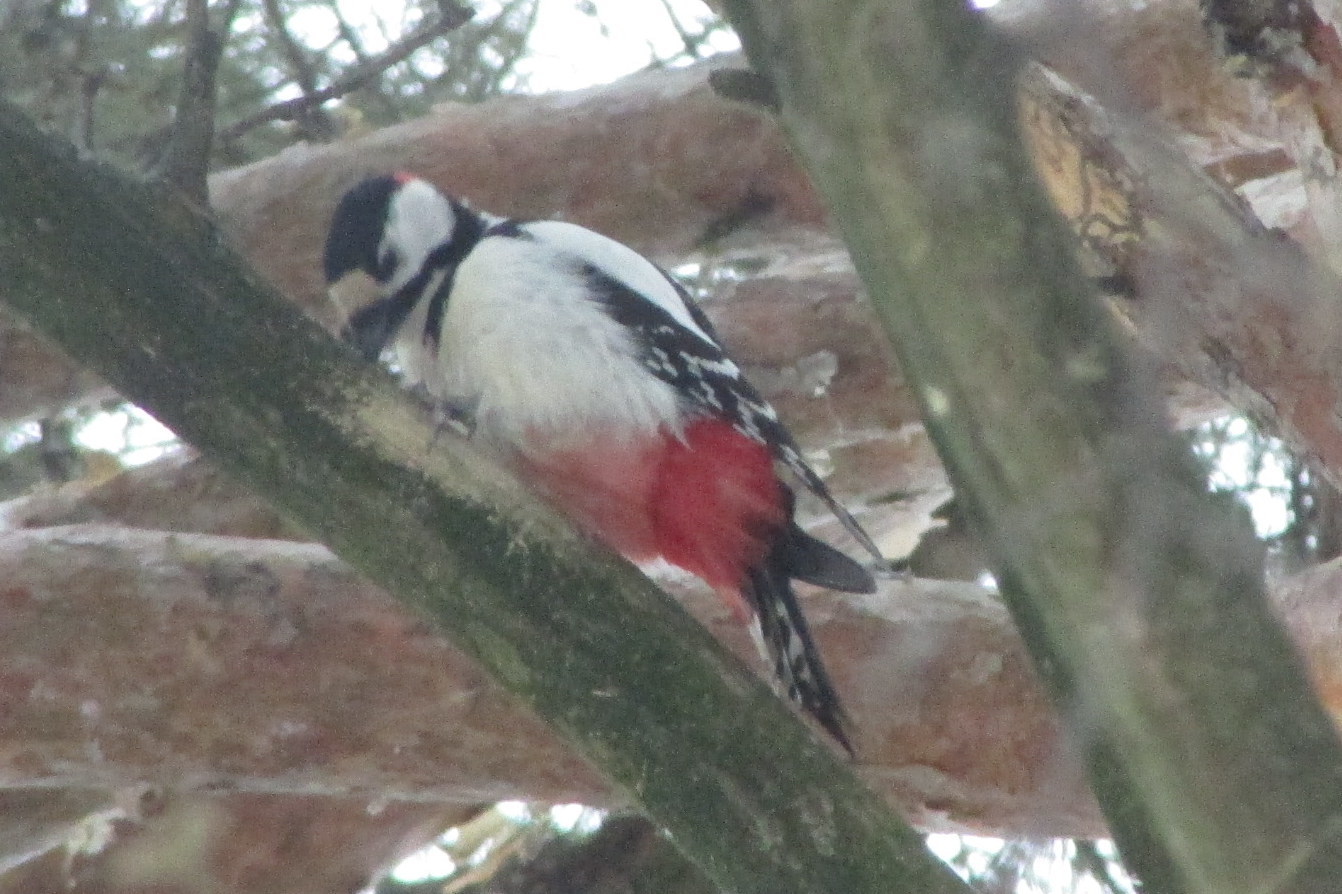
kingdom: Animalia
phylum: Chordata
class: Aves
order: Piciformes
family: Picidae
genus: Dendrocopos
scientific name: Dendrocopos major
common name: Great spotted woodpecker
